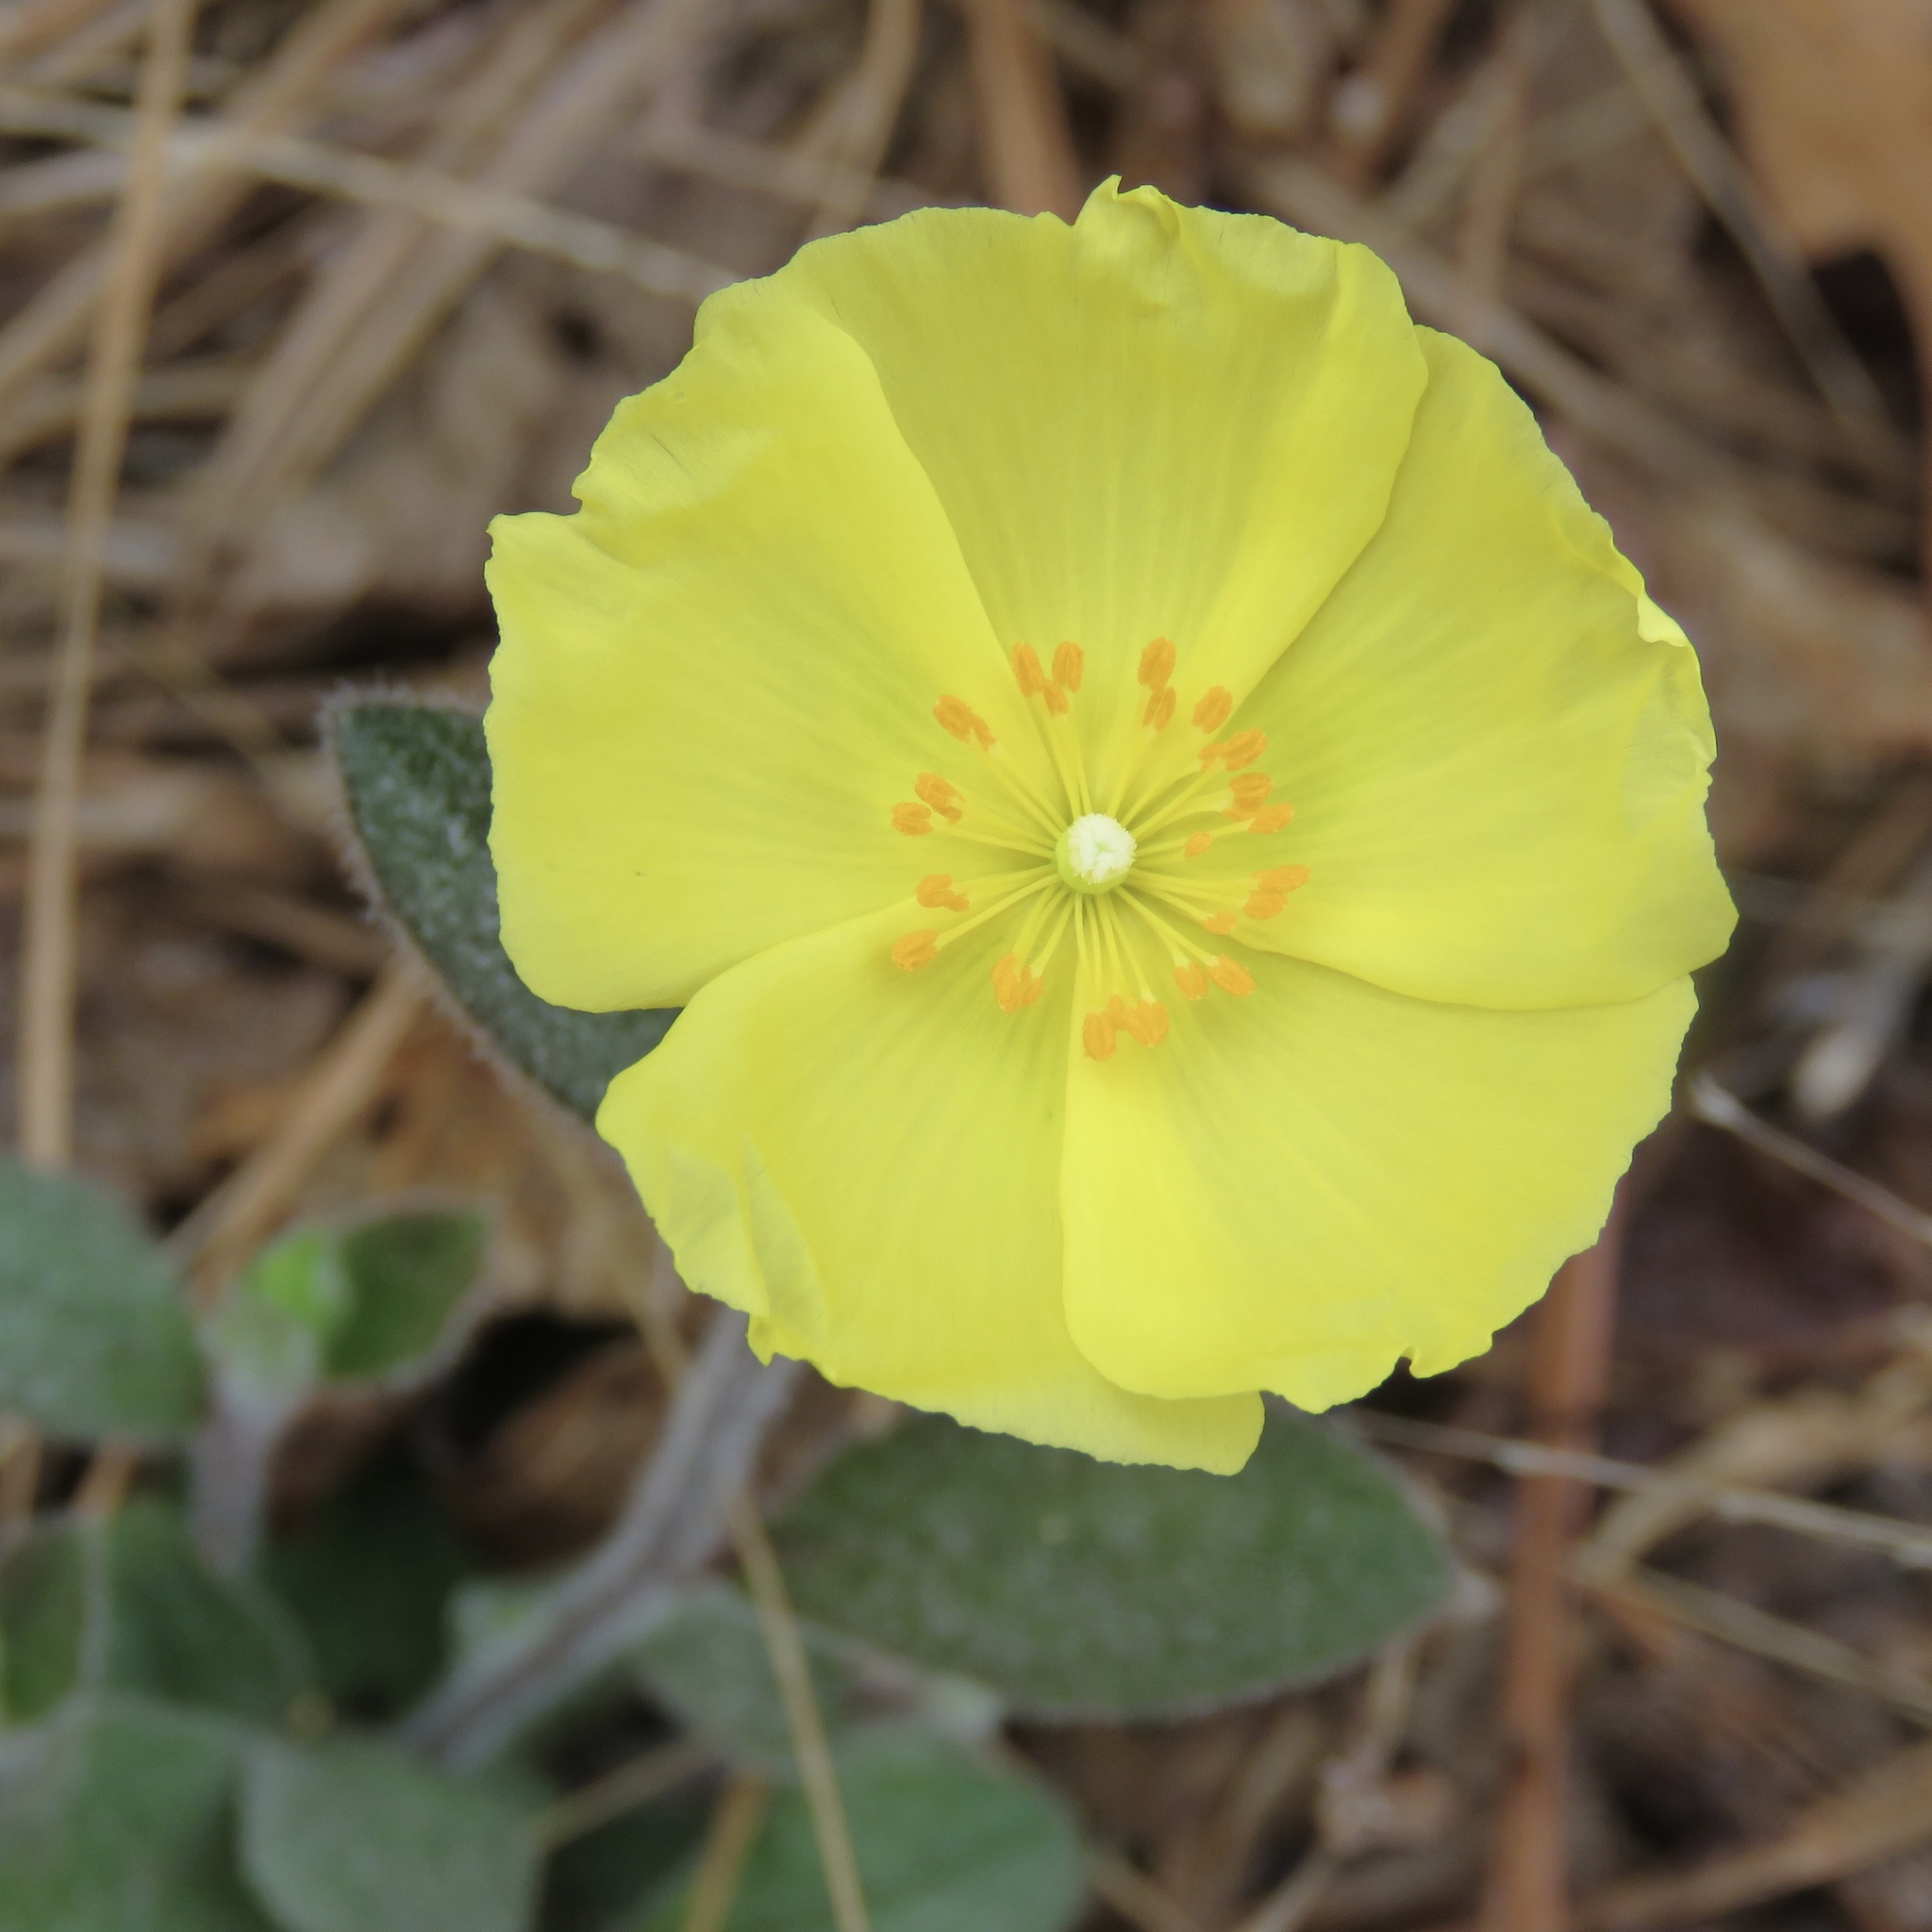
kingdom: Plantae
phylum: Tracheophyta
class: Magnoliopsida
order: Malvales
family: Cistaceae
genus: Crocanthemum
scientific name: Crocanthemum carolinianum
